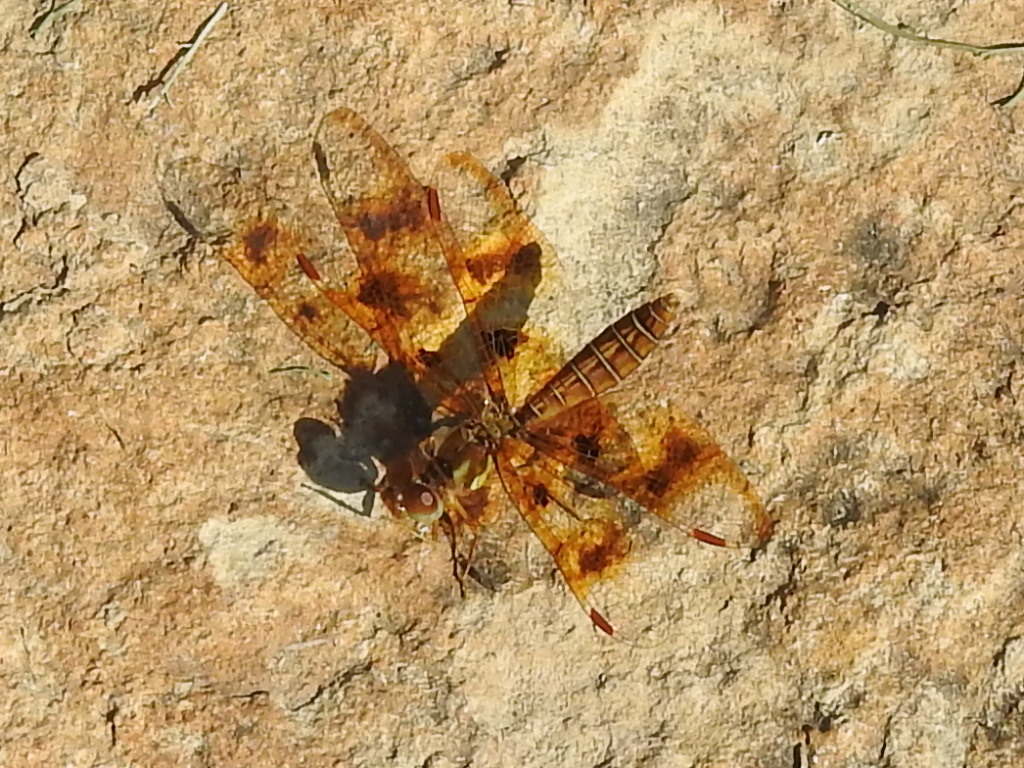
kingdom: Animalia
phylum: Arthropoda
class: Insecta
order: Odonata
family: Libellulidae
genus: Perithemis
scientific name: Perithemis tenera
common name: Eastern amberwing
